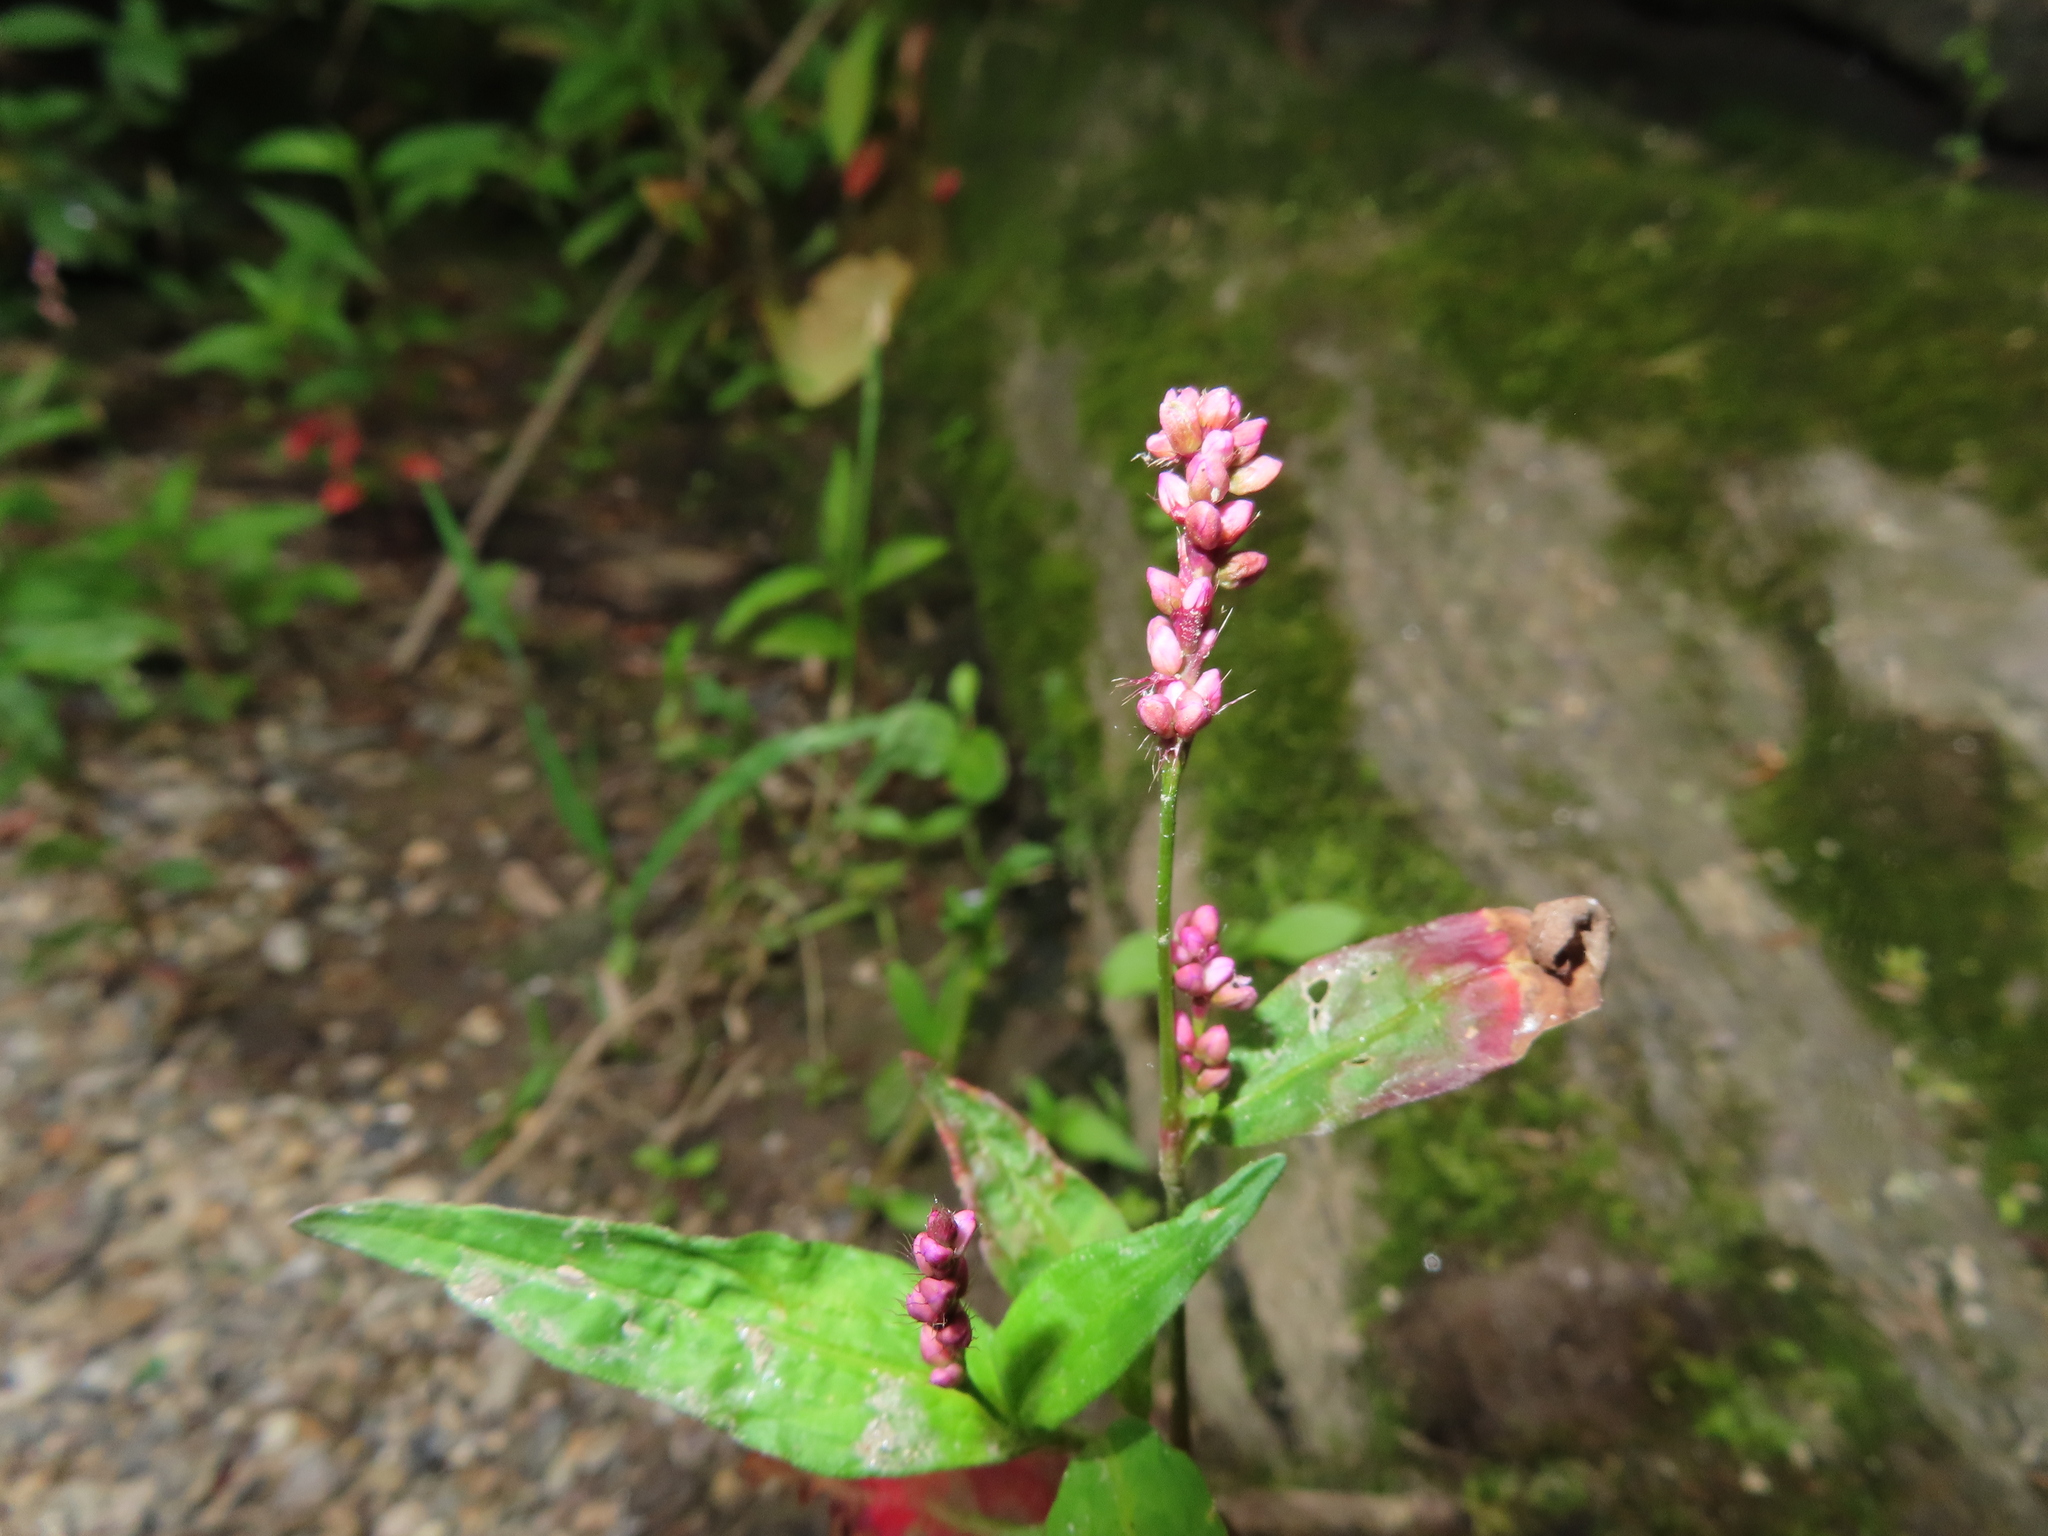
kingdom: Plantae
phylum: Tracheophyta
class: Magnoliopsida
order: Caryophyllales
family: Polygonaceae
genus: Persicaria
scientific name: Persicaria longiseta
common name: Bristly lady's-thumb
